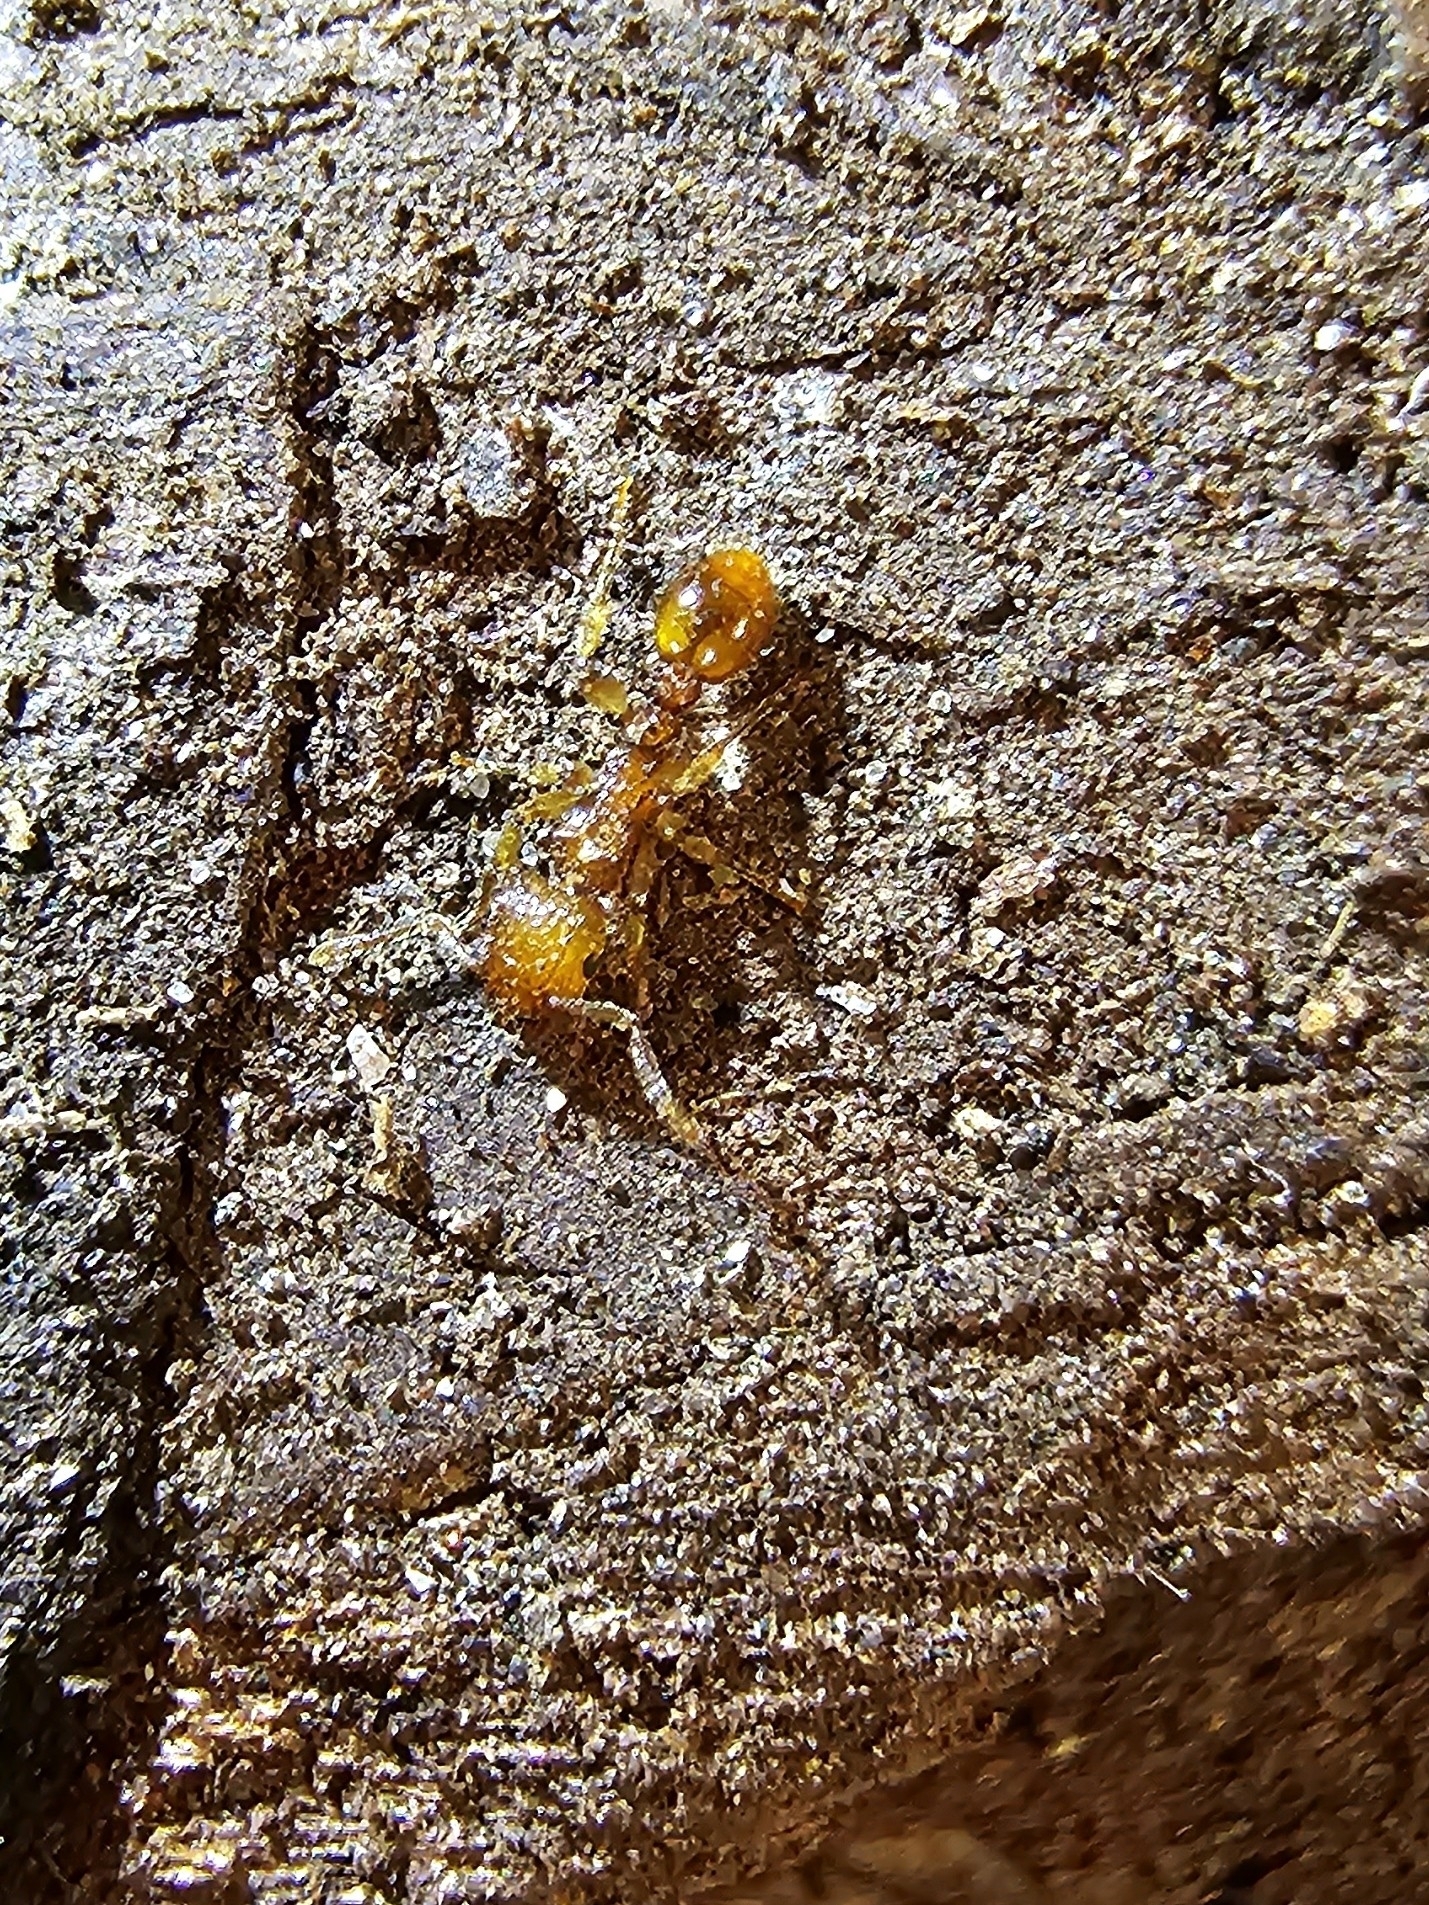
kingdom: Animalia
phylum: Arthropoda
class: Insecta
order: Hymenoptera
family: Formicidae
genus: Tetramorium
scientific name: Tetramorium insolens
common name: Ant
